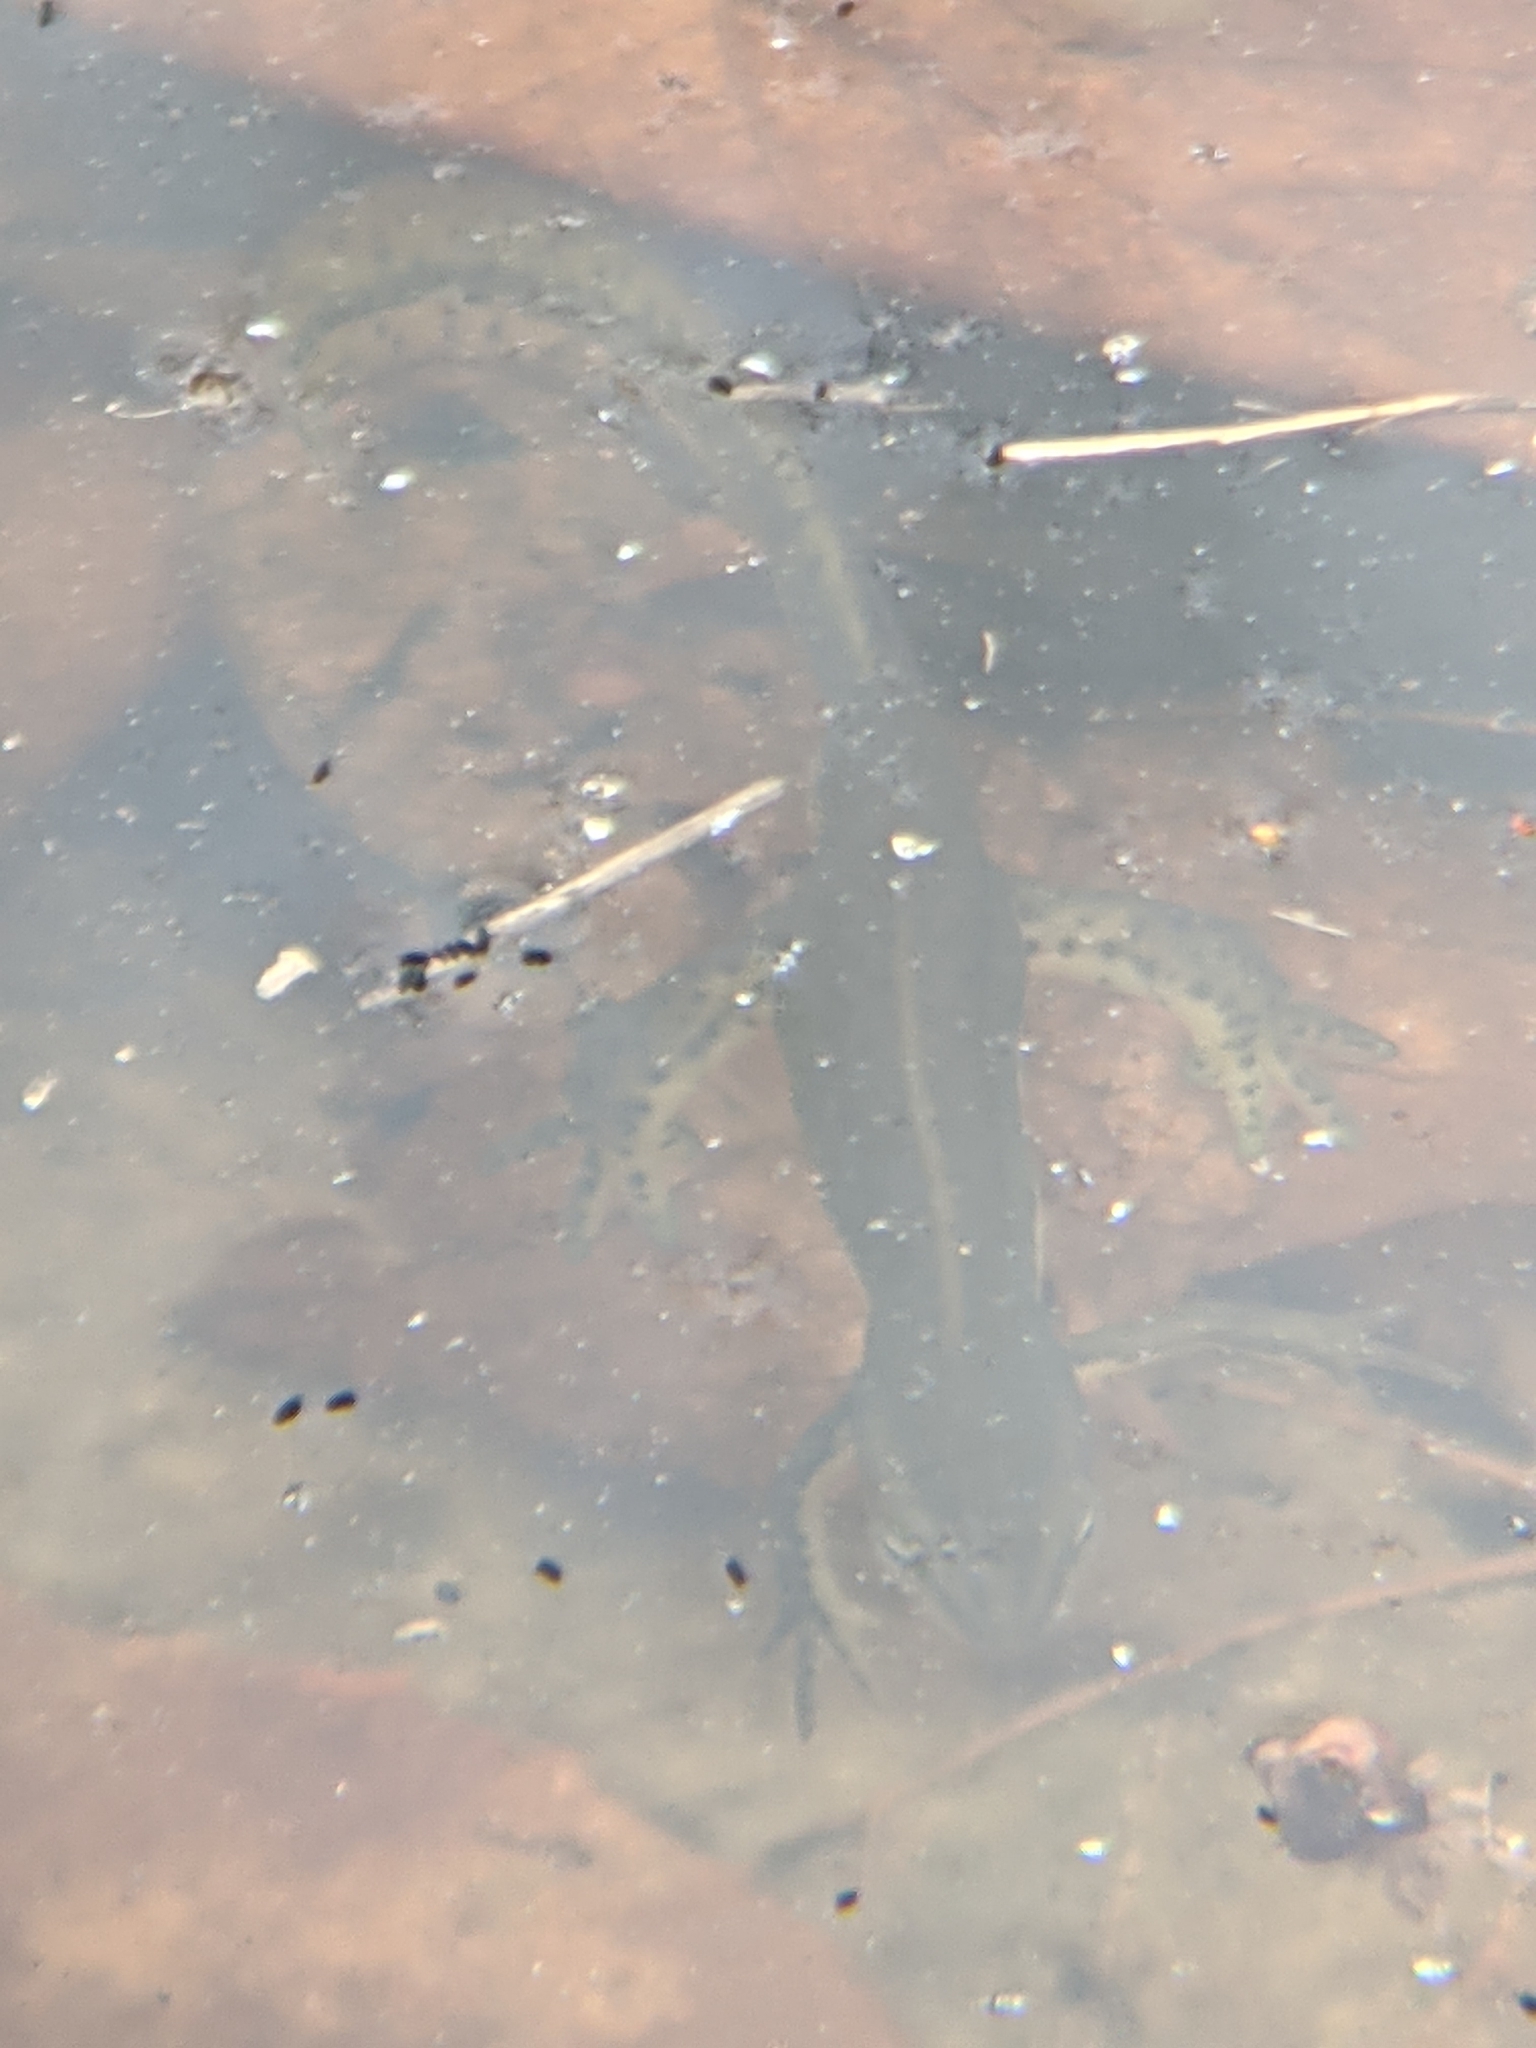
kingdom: Animalia
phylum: Chordata
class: Amphibia
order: Caudata
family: Salamandridae
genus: Notophthalmus
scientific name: Notophthalmus viridescens
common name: Eastern newt
